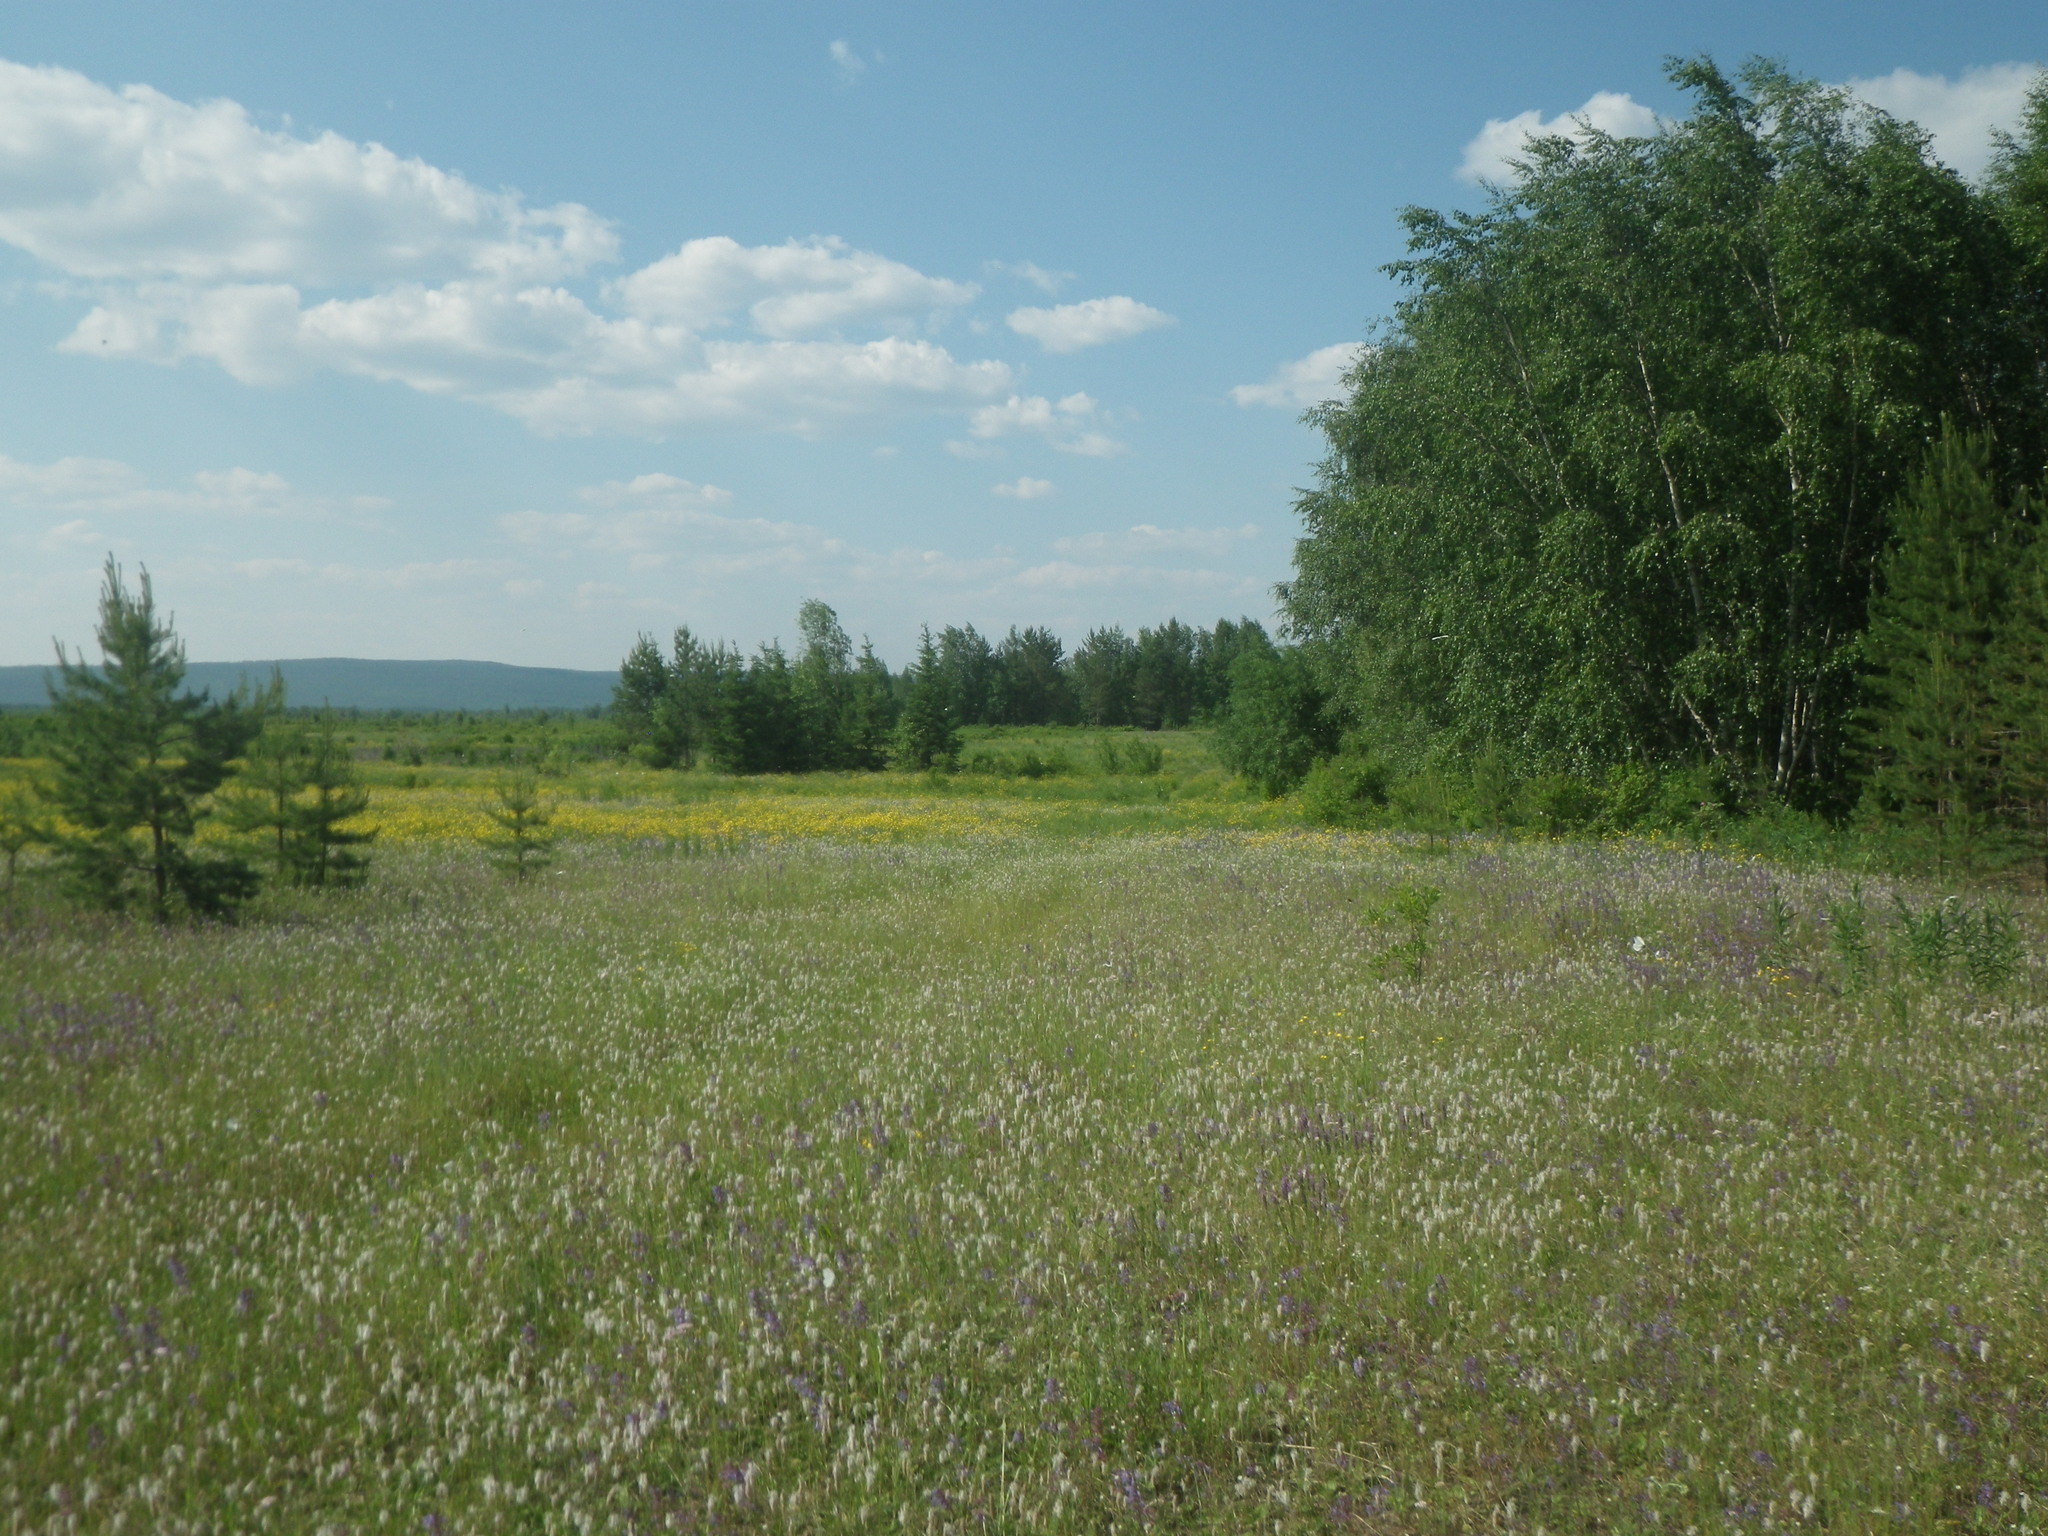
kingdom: Plantae
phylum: Tracheophyta
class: Pinopsida
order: Pinales
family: Pinaceae
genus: Pinus
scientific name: Pinus sylvestris
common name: Scots pine
